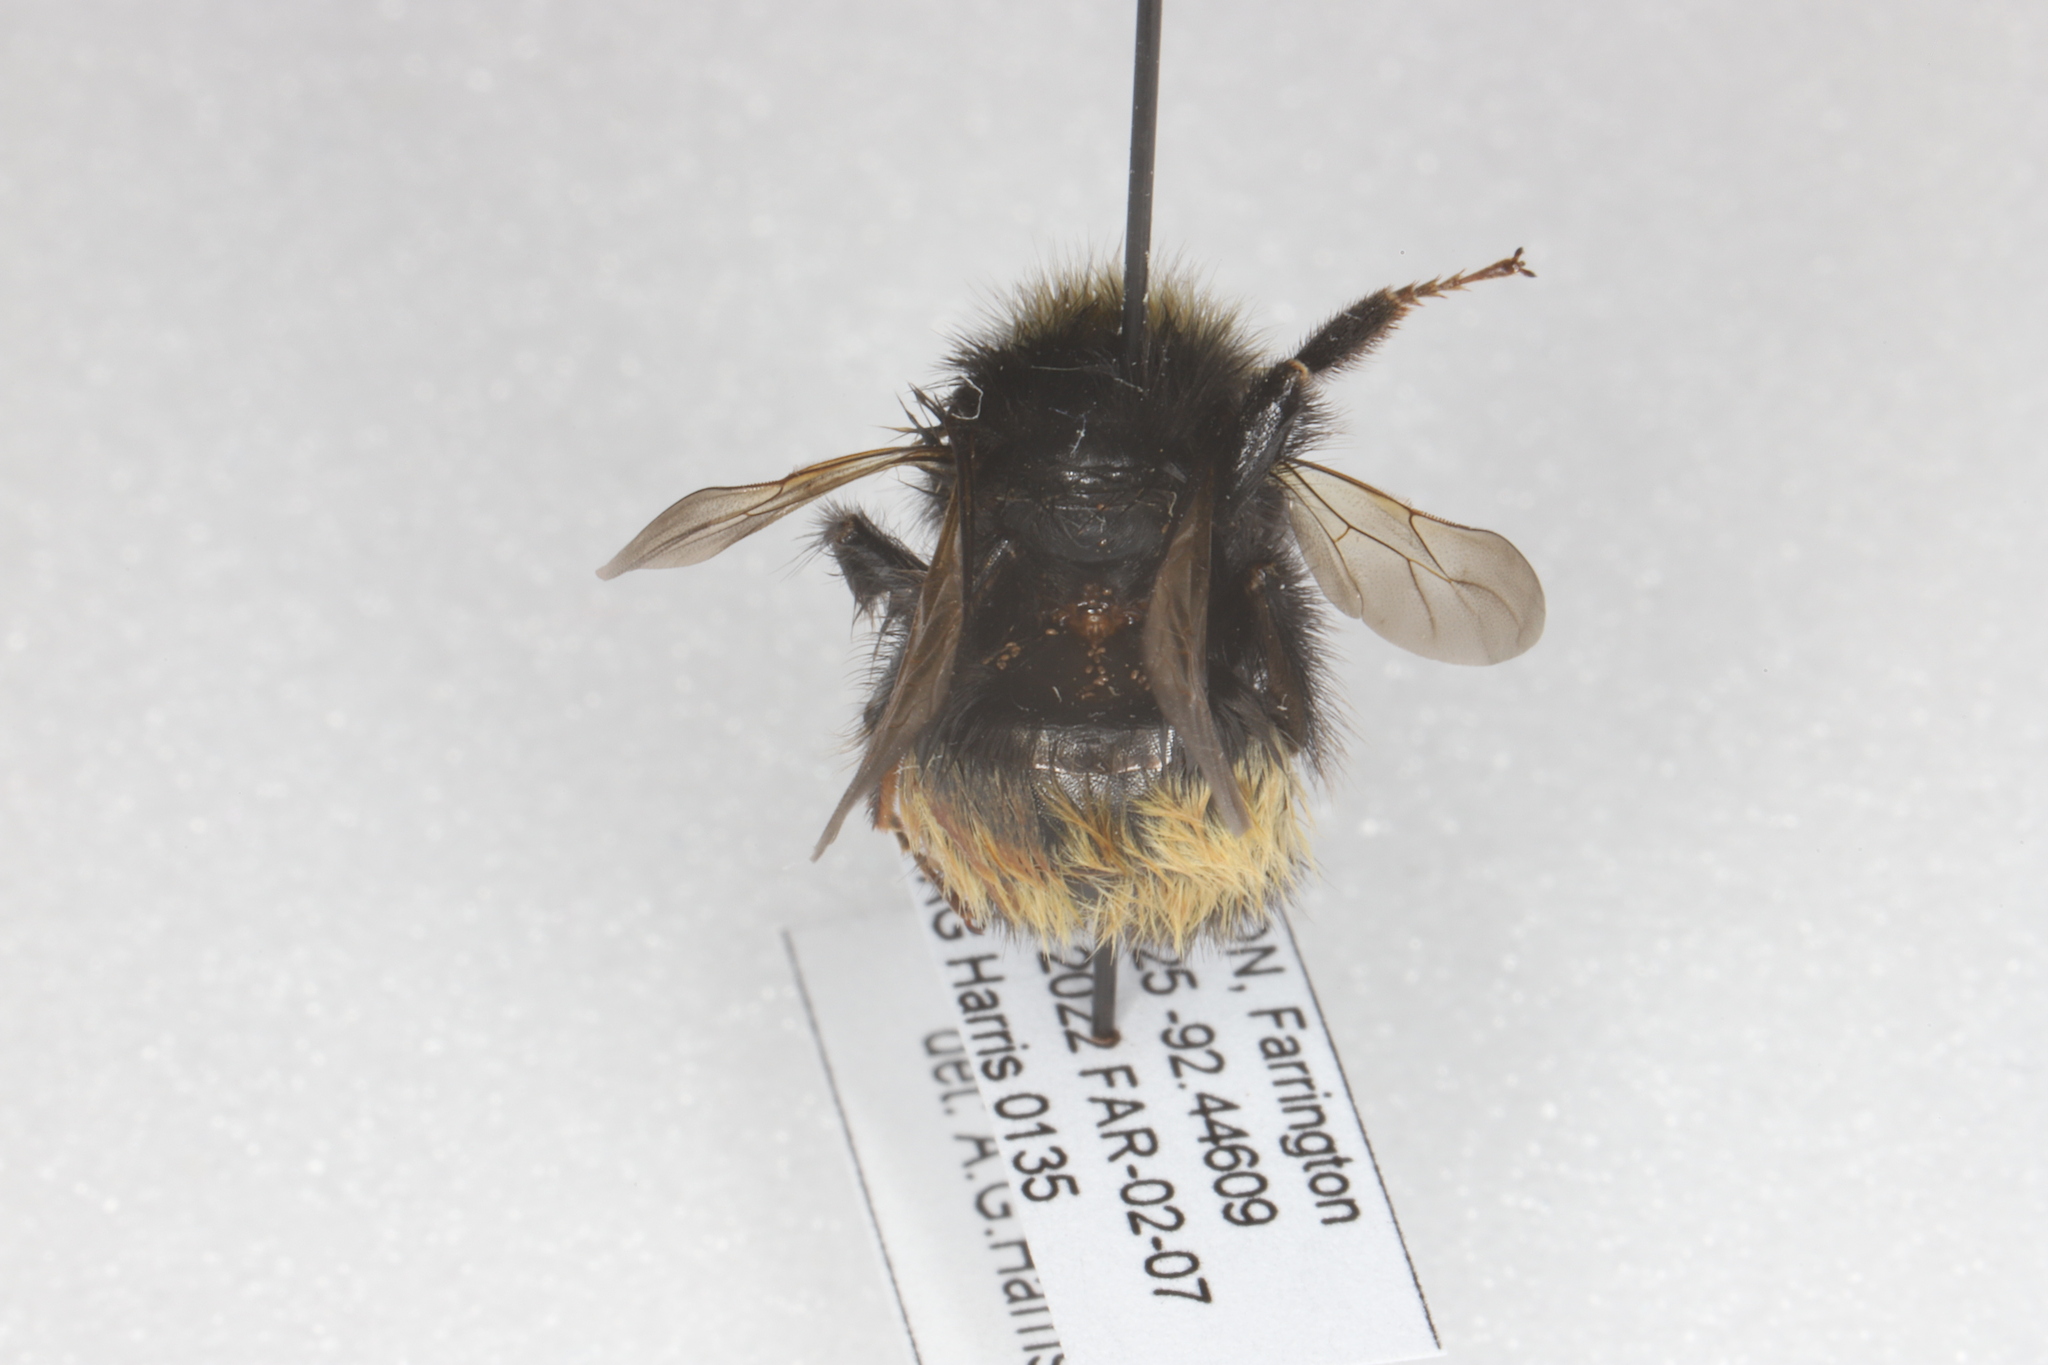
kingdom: Animalia
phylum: Arthropoda
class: Insecta
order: Hymenoptera
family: Apidae
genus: Bombus
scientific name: Bombus terricola
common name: Yellow-banded bumble bee
